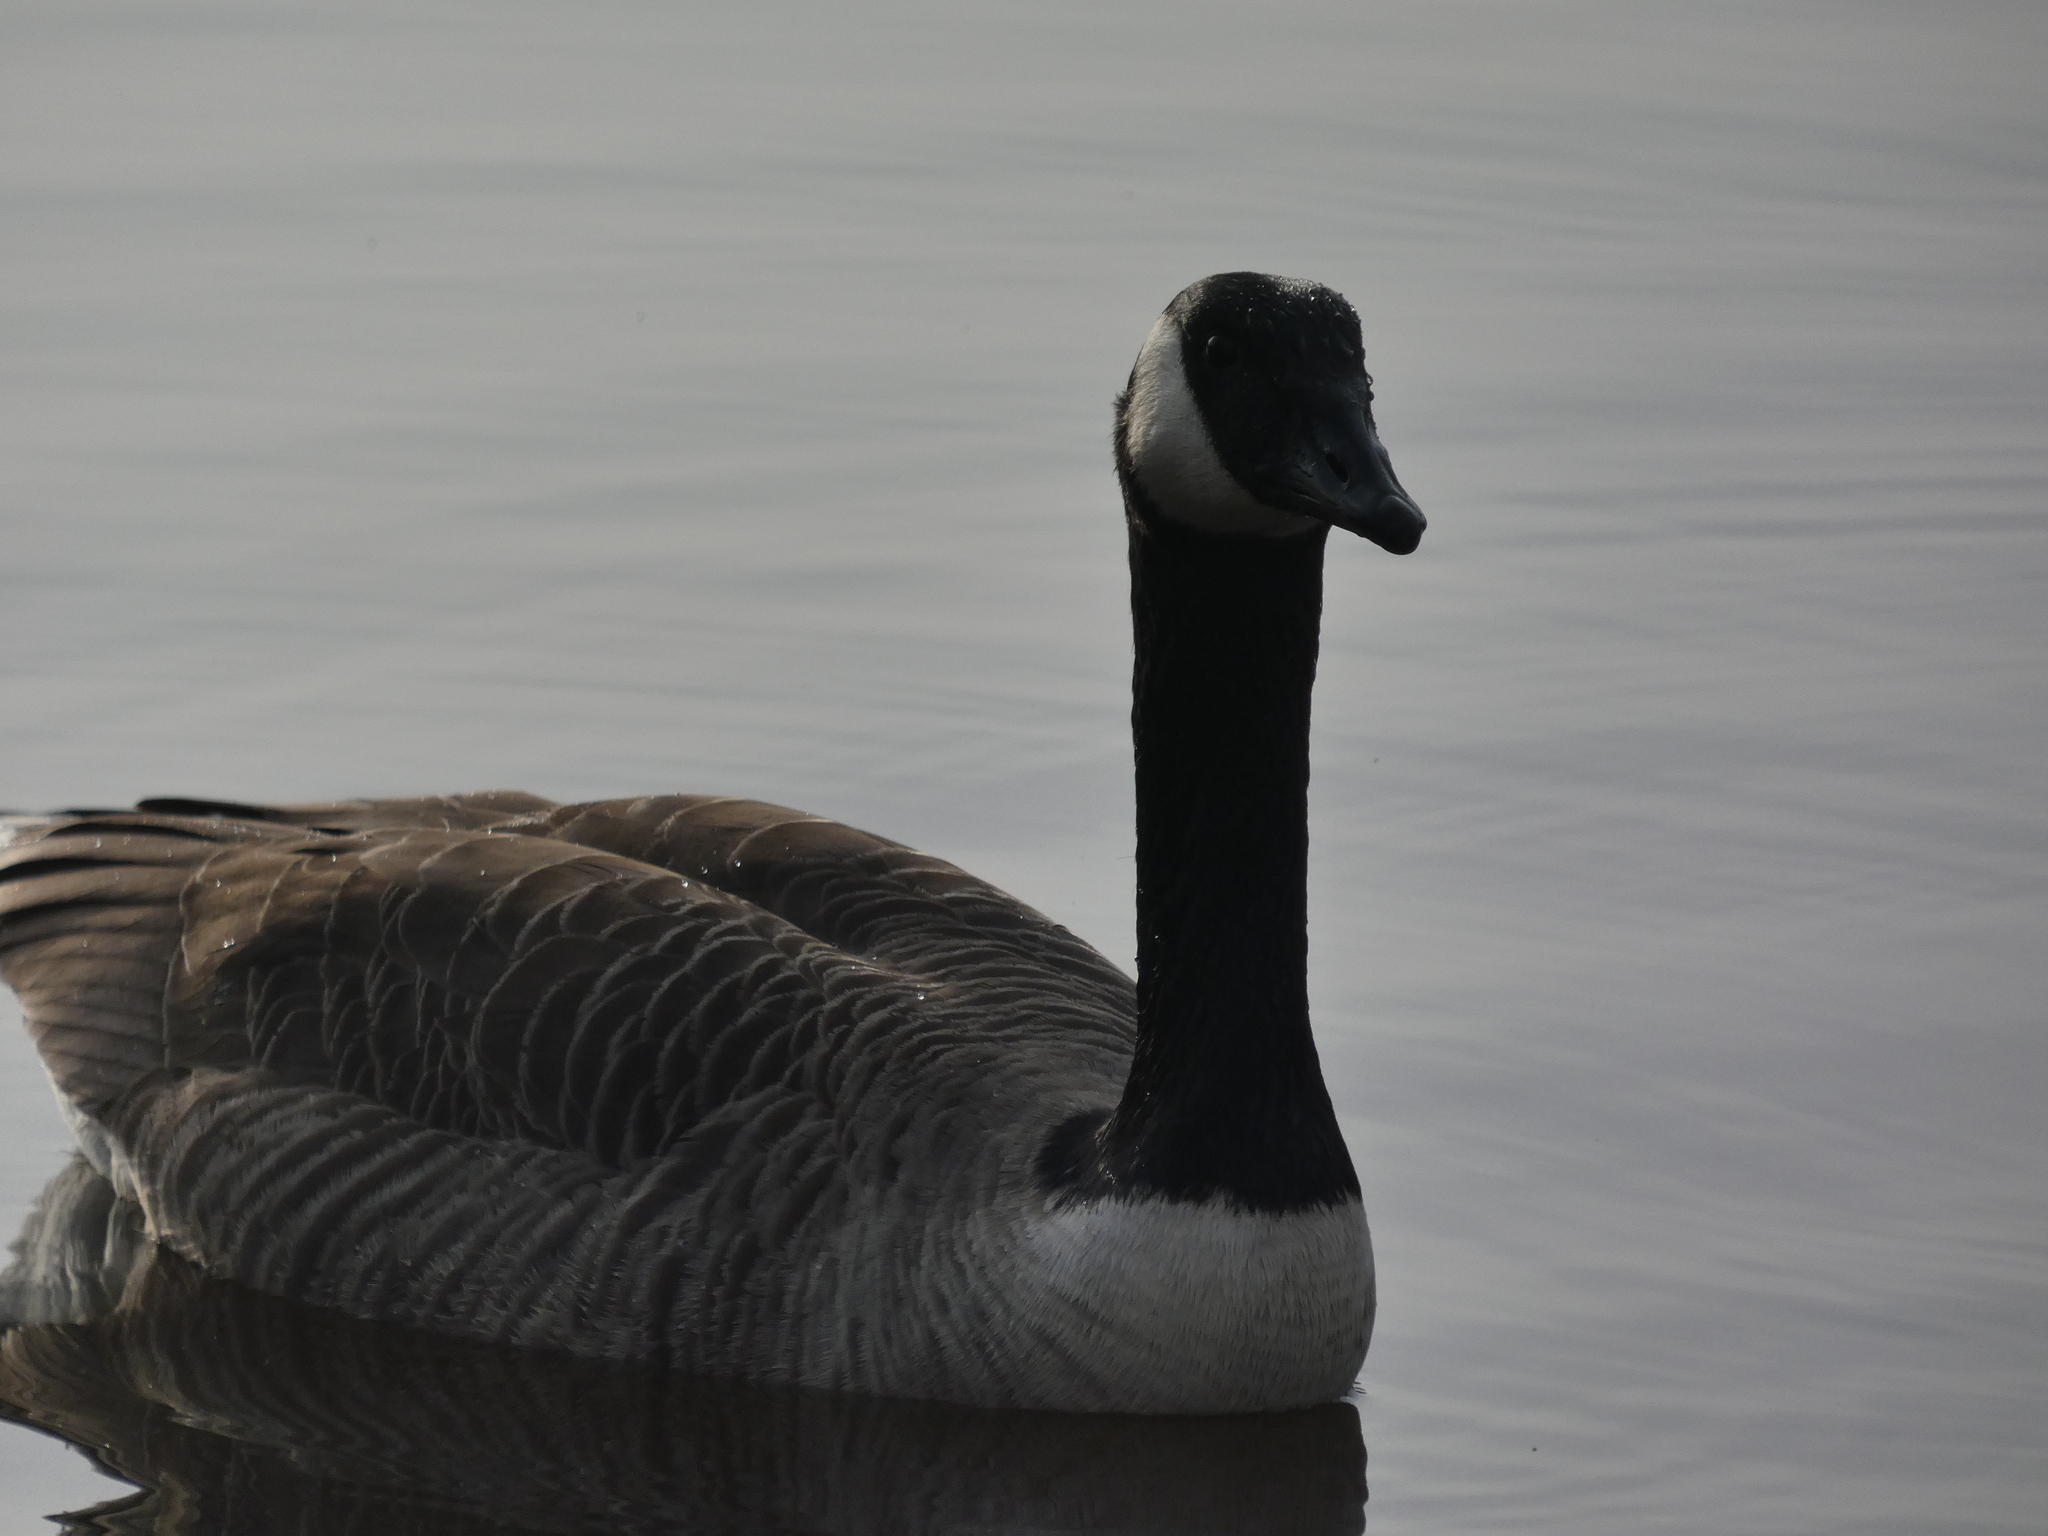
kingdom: Animalia
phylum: Chordata
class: Aves
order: Anseriformes
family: Anatidae
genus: Branta
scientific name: Branta canadensis
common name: Canada goose
